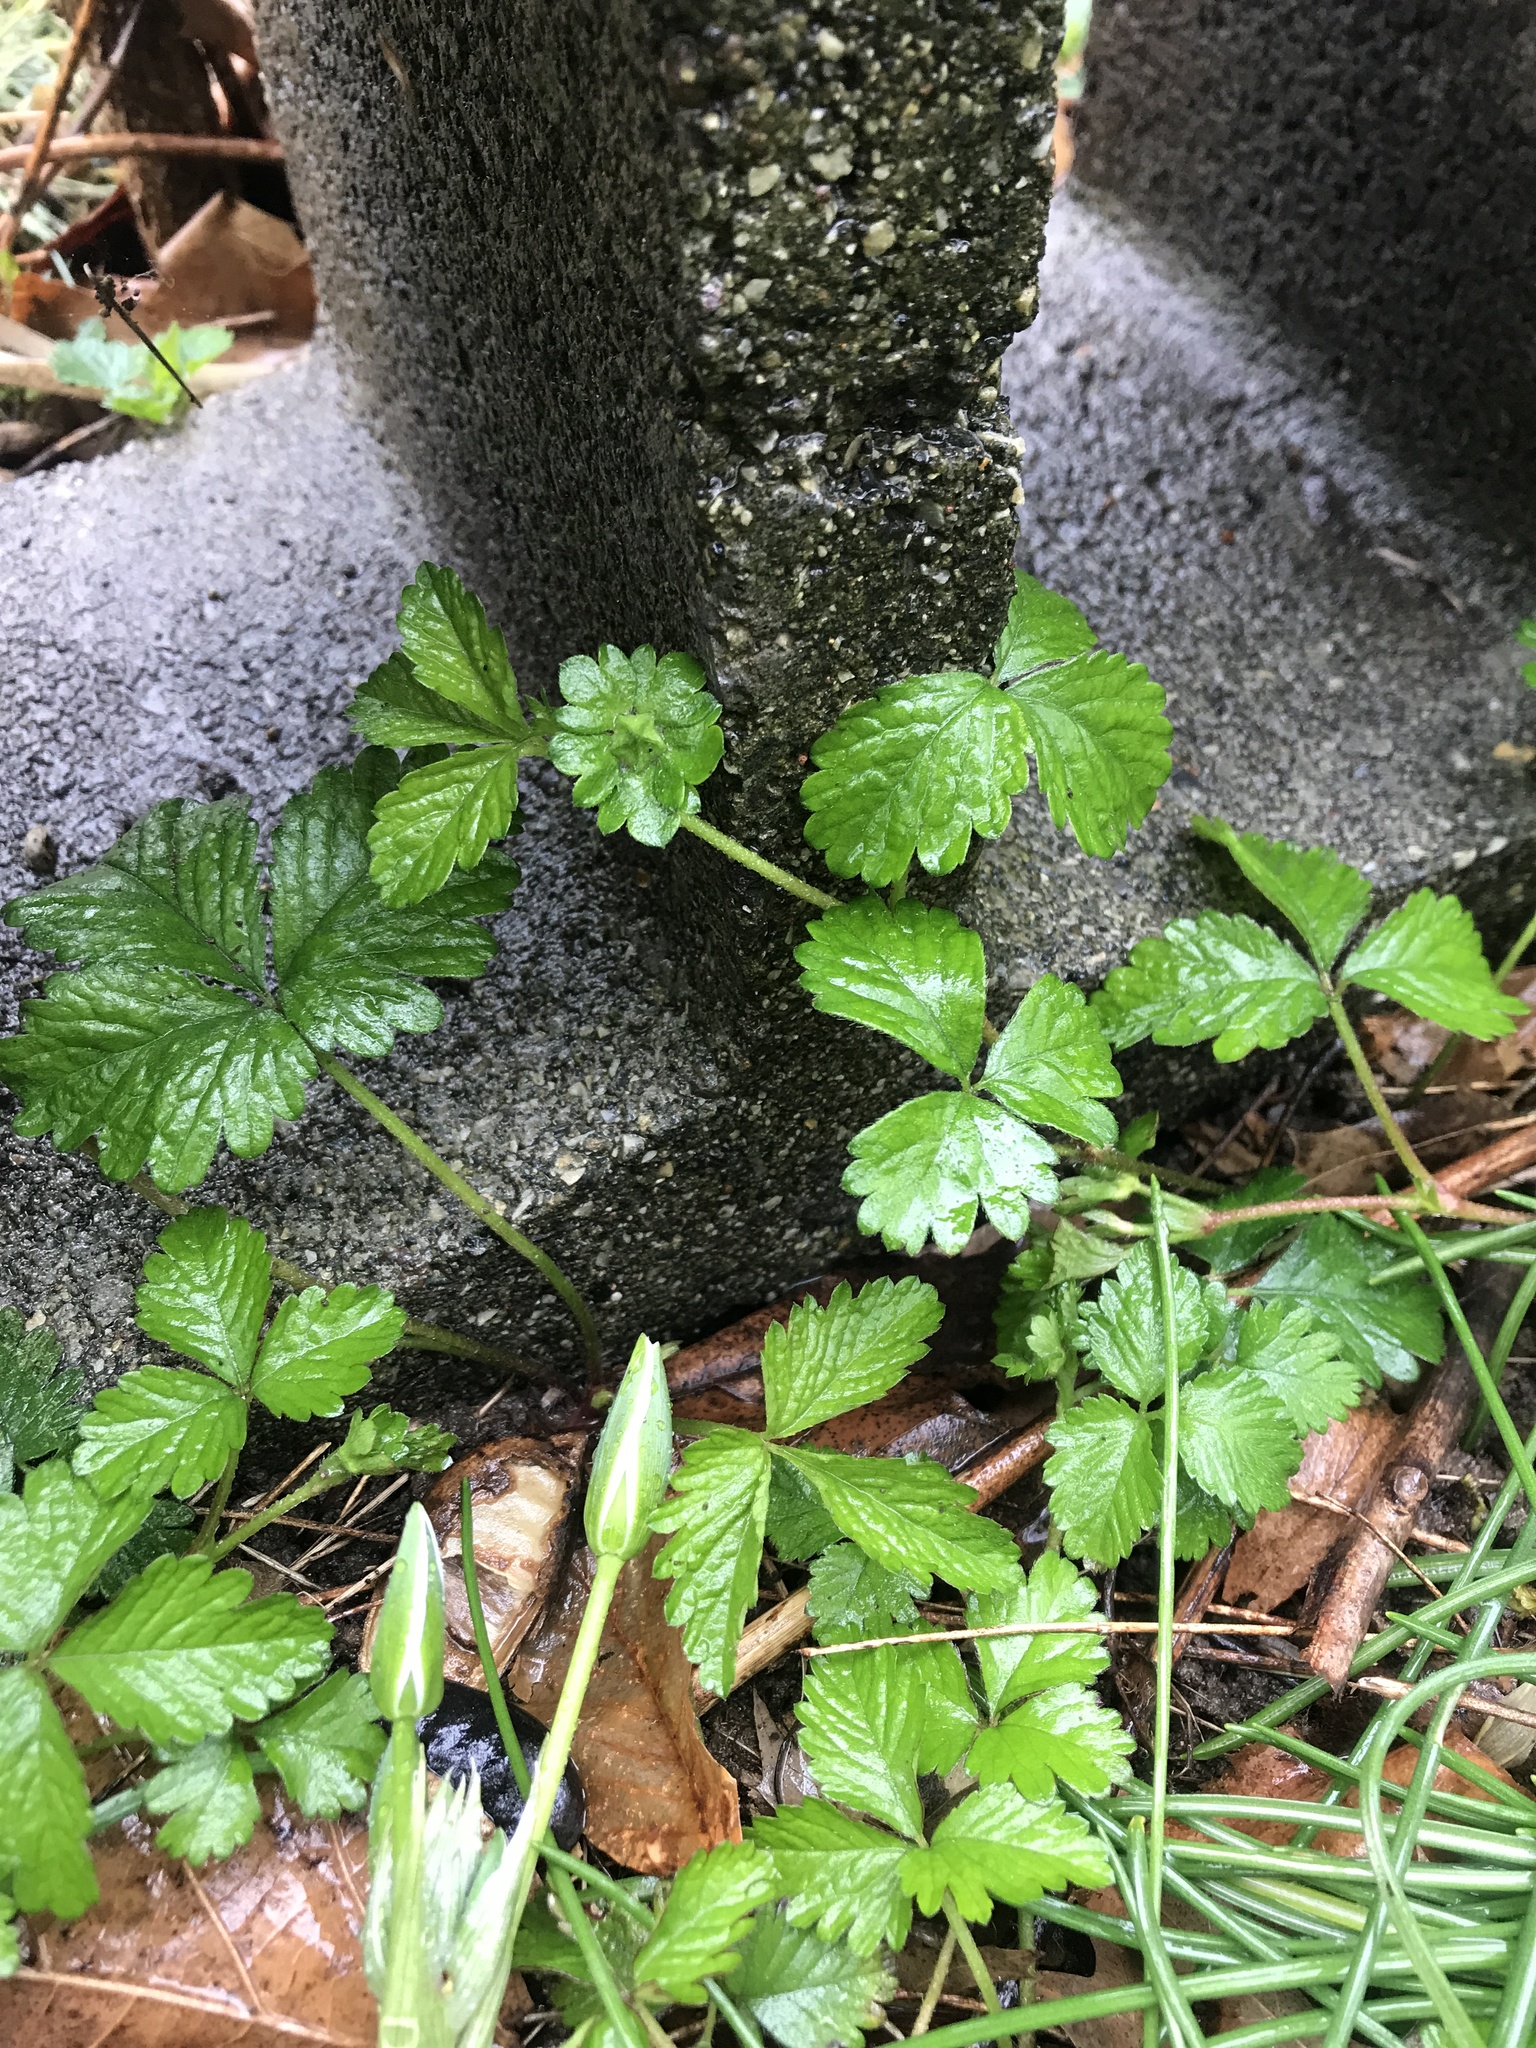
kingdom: Plantae
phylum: Tracheophyta
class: Magnoliopsida
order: Rosales
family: Rosaceae
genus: Potentilla
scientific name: Potentilla indica
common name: Yellow-flowered strawberry
